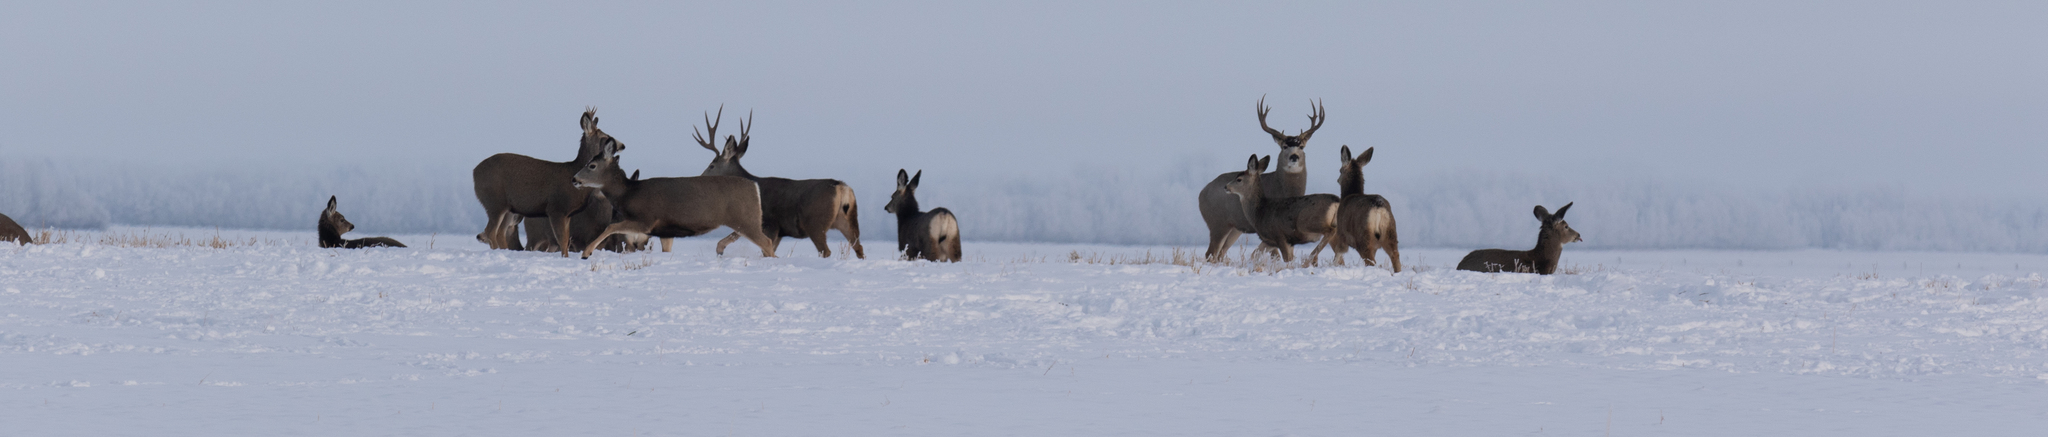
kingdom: Animalia
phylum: Chordata
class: Mammalia
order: Artiodactyla
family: Cervidae
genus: Odocoileus
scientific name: Odocoileus hemionus
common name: Mule deer
